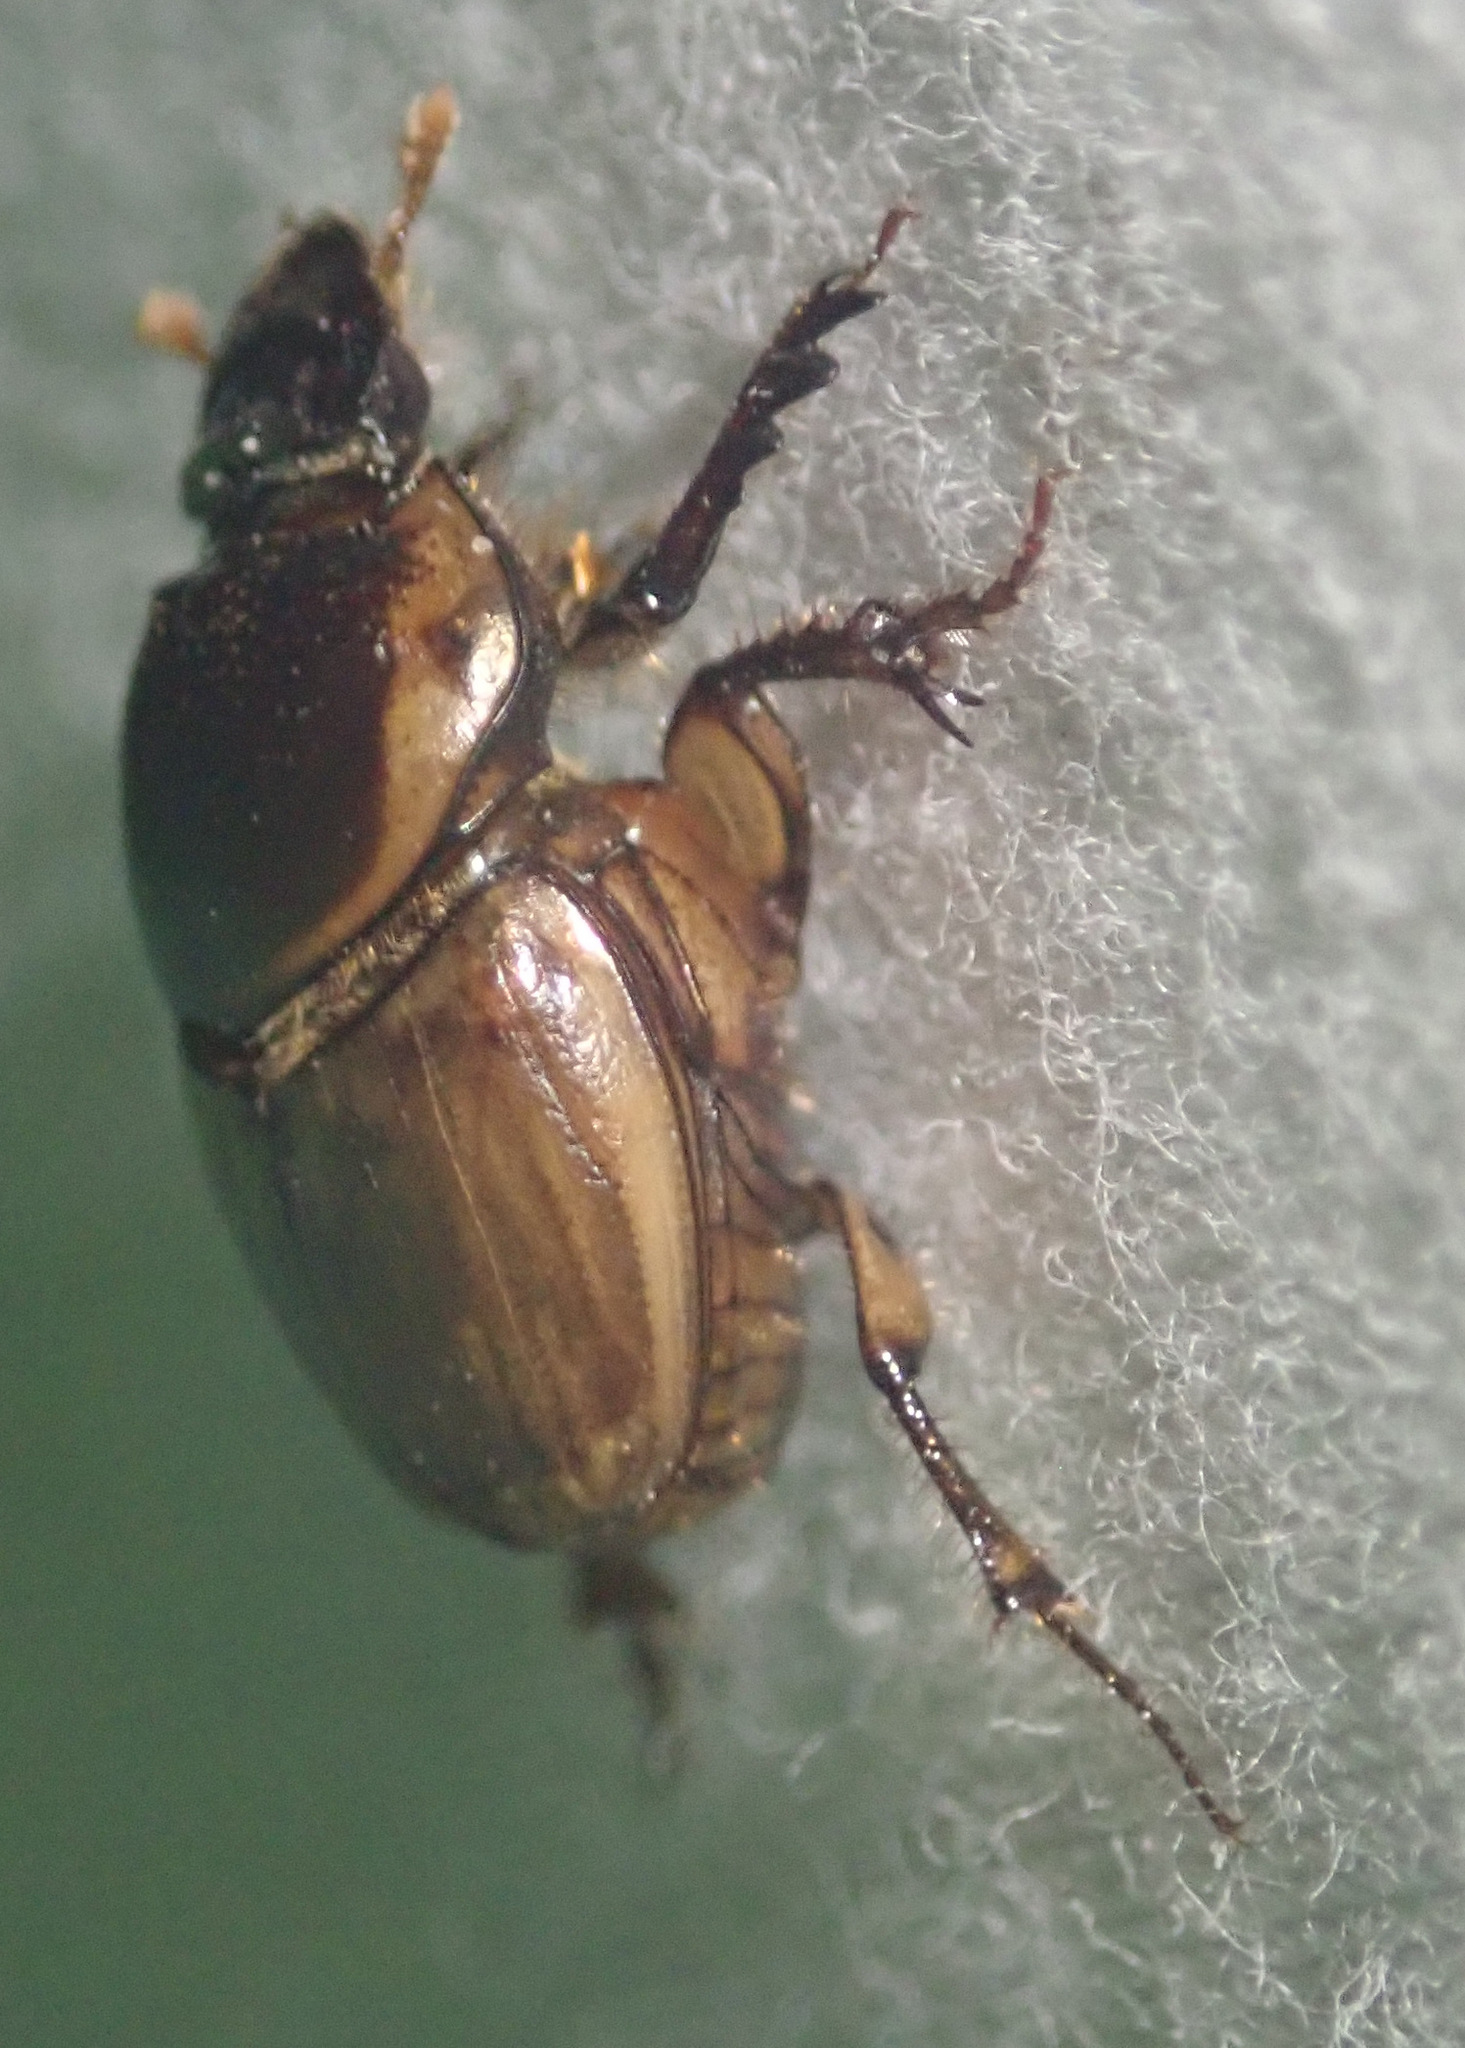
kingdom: Animalia
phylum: Arthropoda
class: Insecta
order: Coleoptera
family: Scarabaeidae
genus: Digitonthophagus
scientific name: Digitonthophagus gazella
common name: Brown dung beetle
